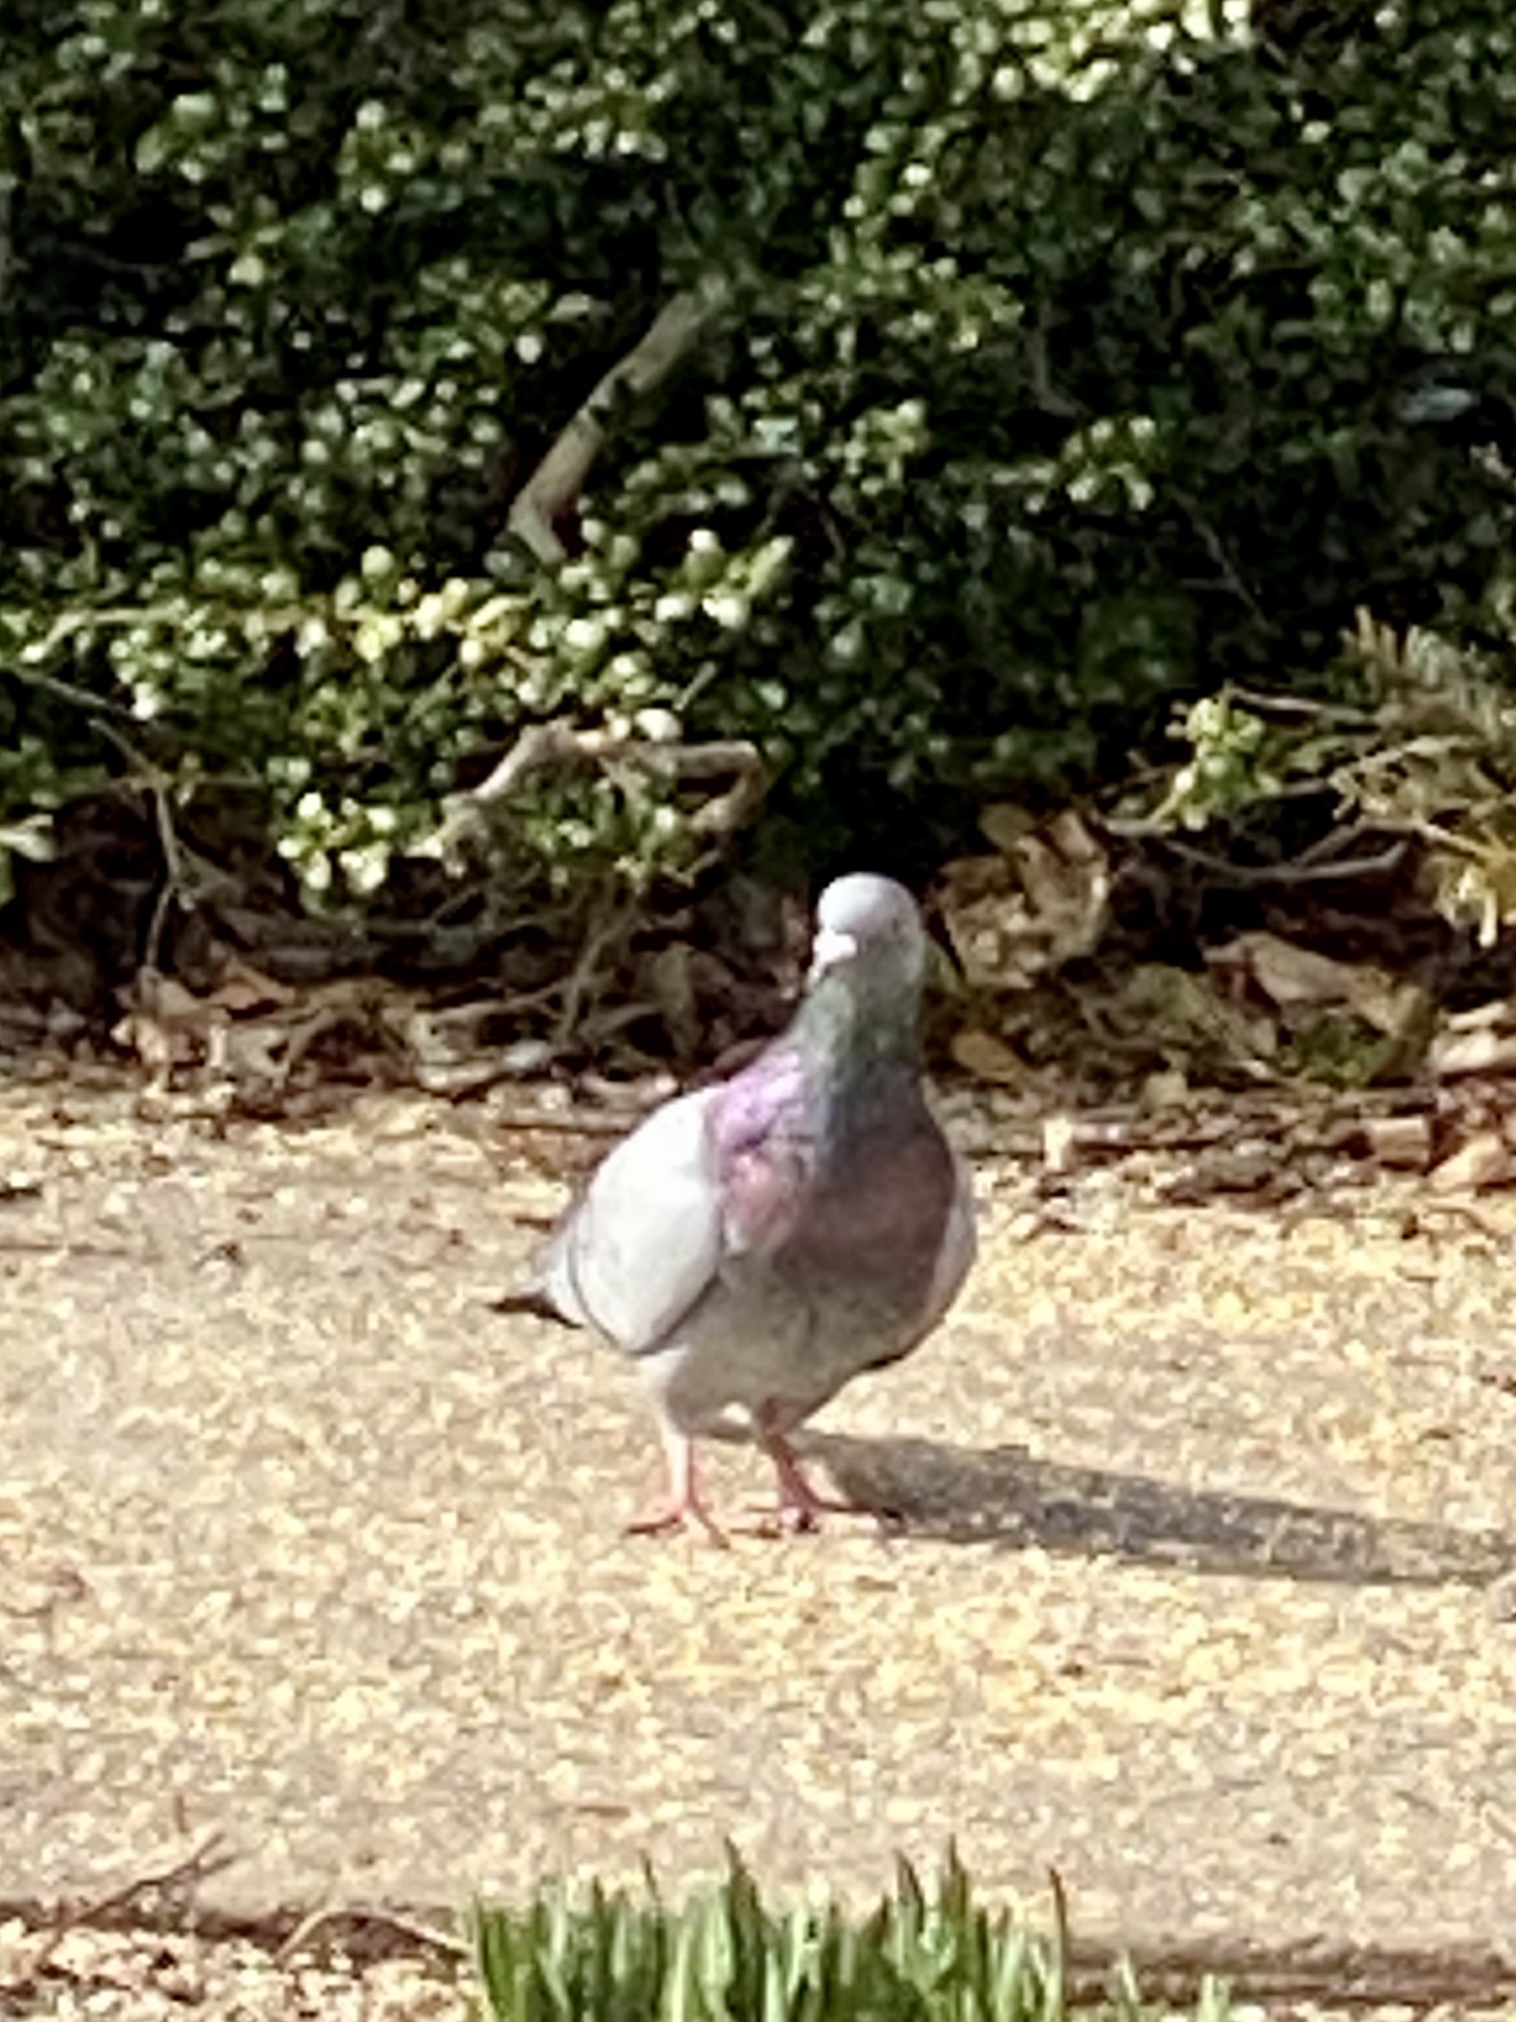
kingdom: Animalia
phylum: Chordata
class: Aves
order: Columbiformes
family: Columbidae
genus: Columba
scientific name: Columba livia
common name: Rock pigeon
